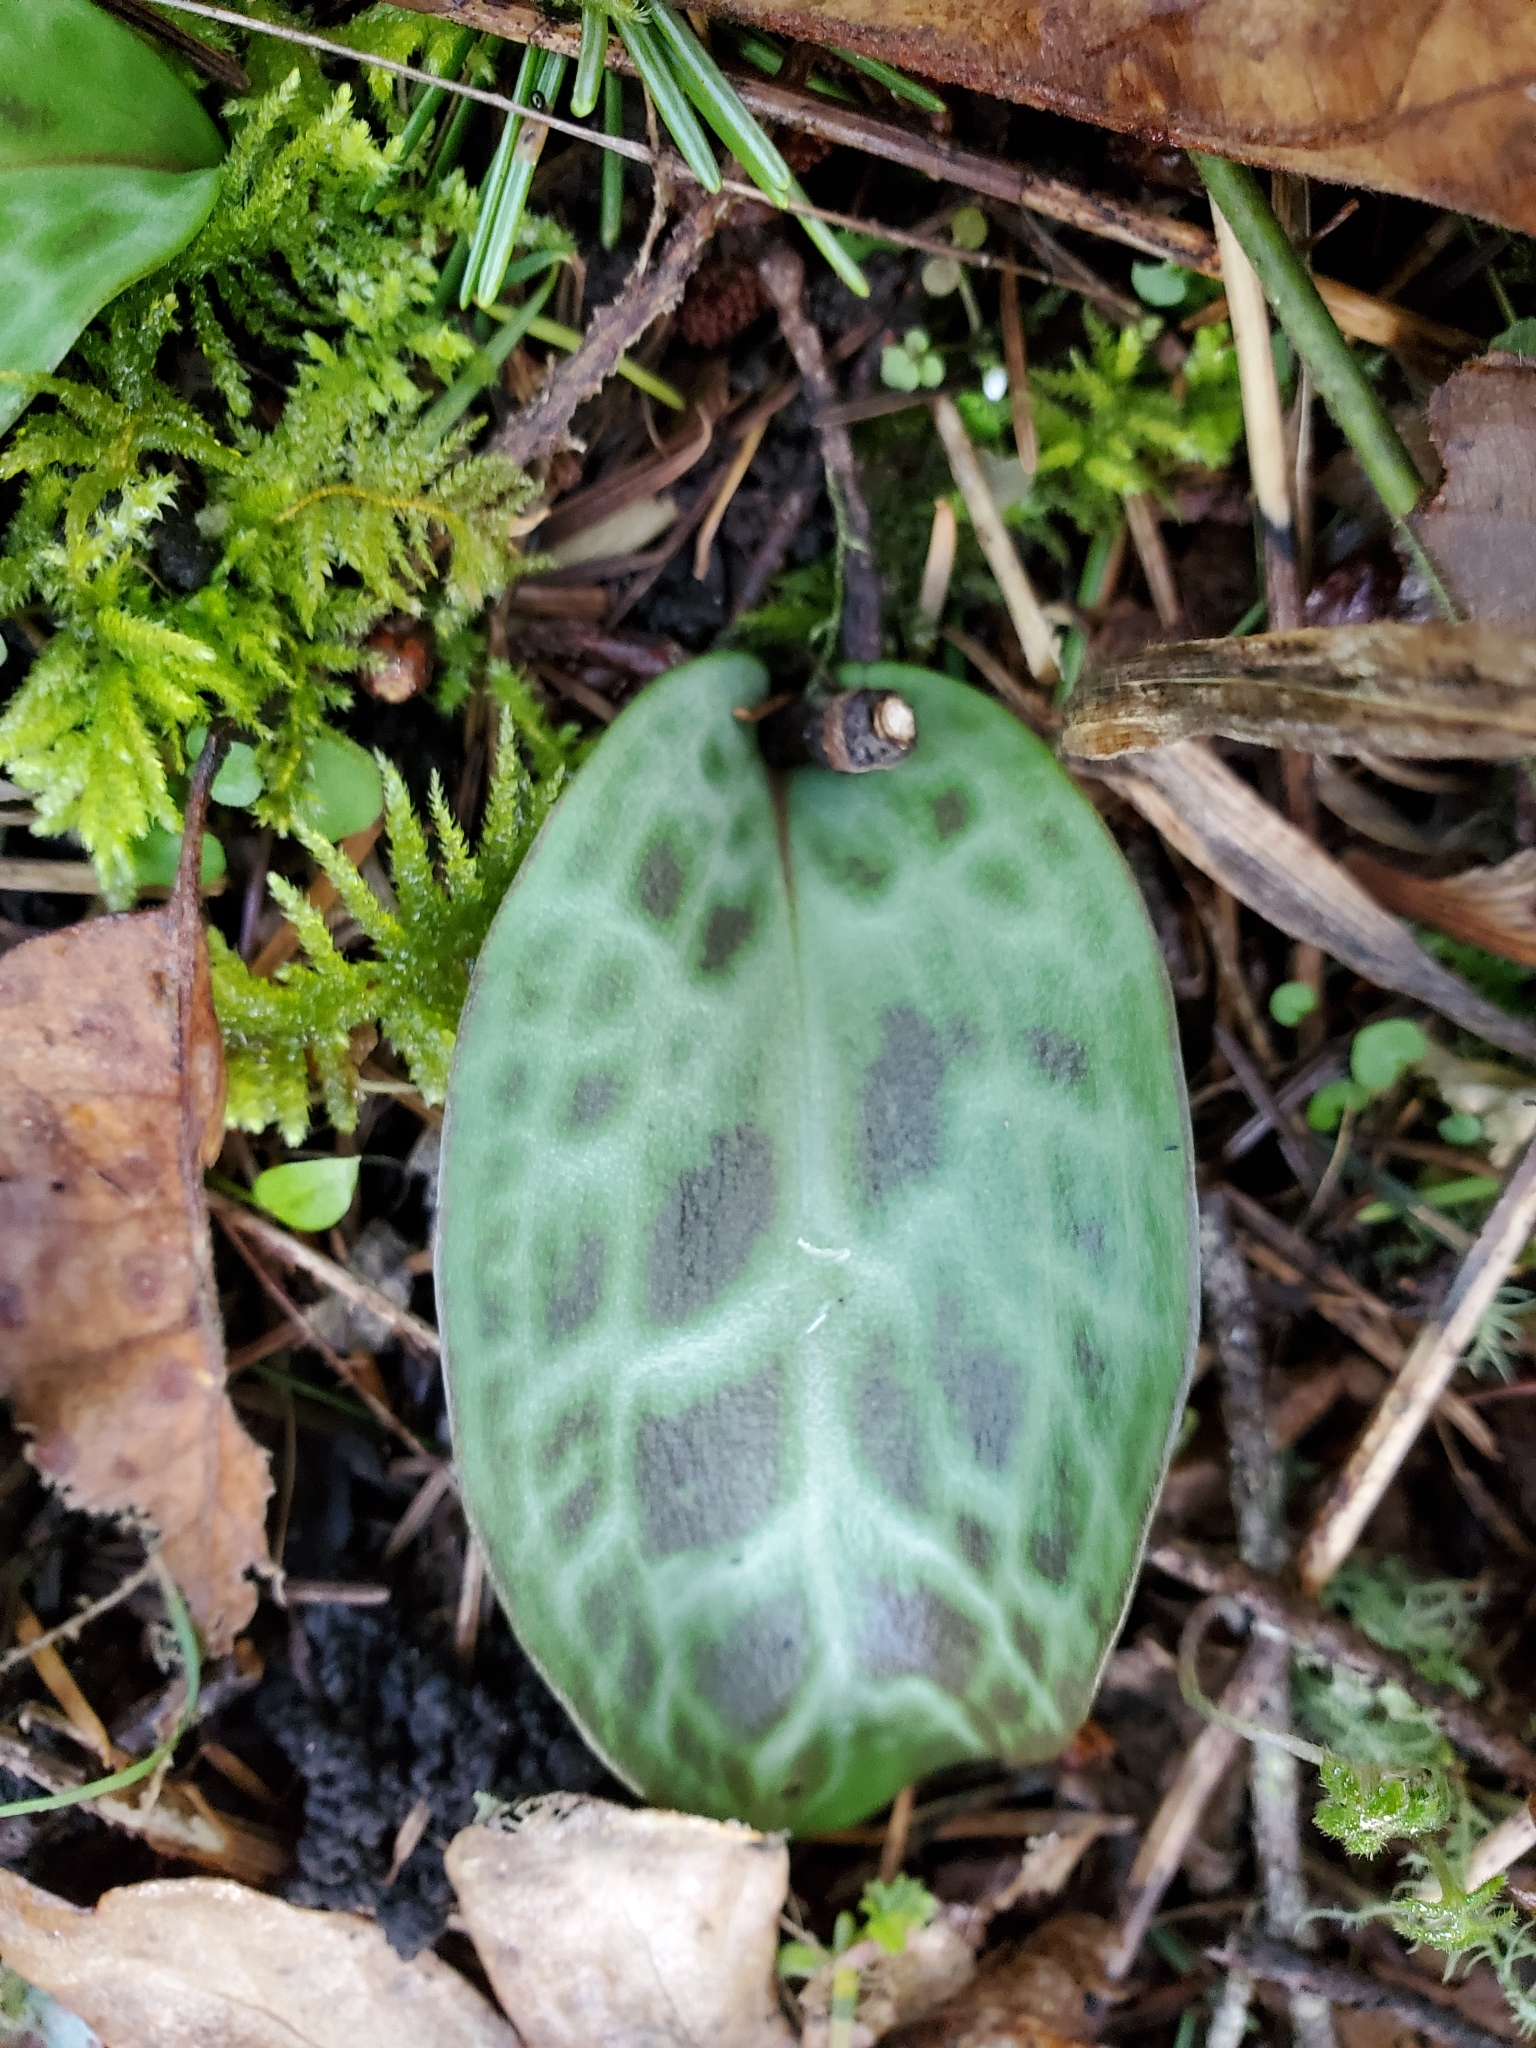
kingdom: Plantae
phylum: Tracheophyta
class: Liliopsida
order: Liliales
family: Liliaceae
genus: Erythronium
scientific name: Erythronium oregonum
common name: Giant adder's-tongue
